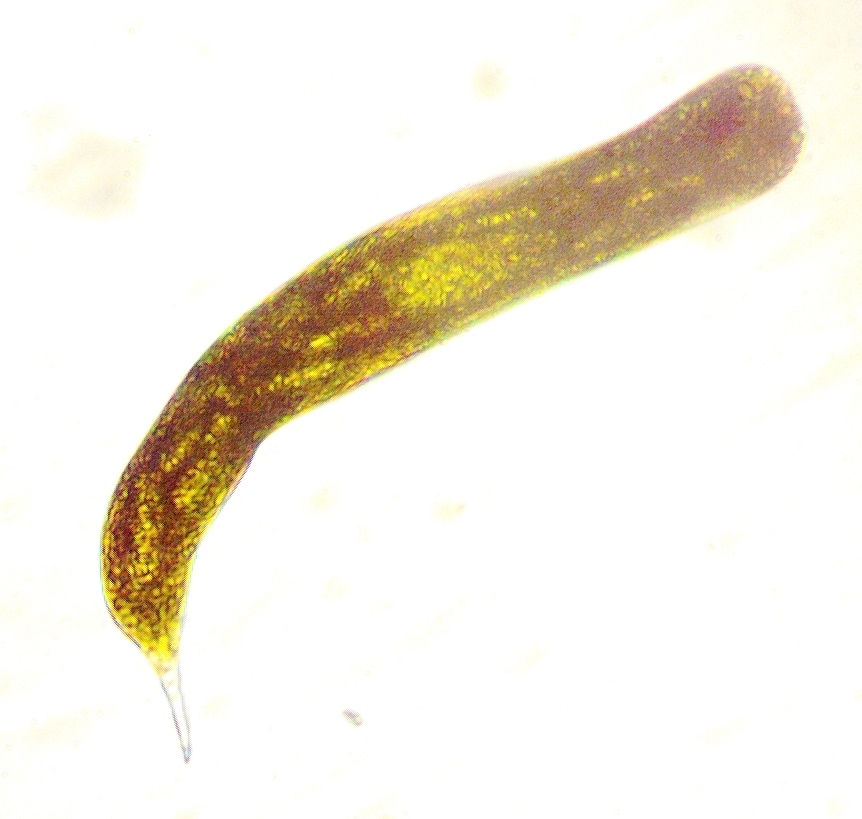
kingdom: Protozoa
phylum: Euglenozoa
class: Euglenoidea
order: Euglenida
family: Phacidae
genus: Lepocinclis
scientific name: Lepocinclis helicoidea
